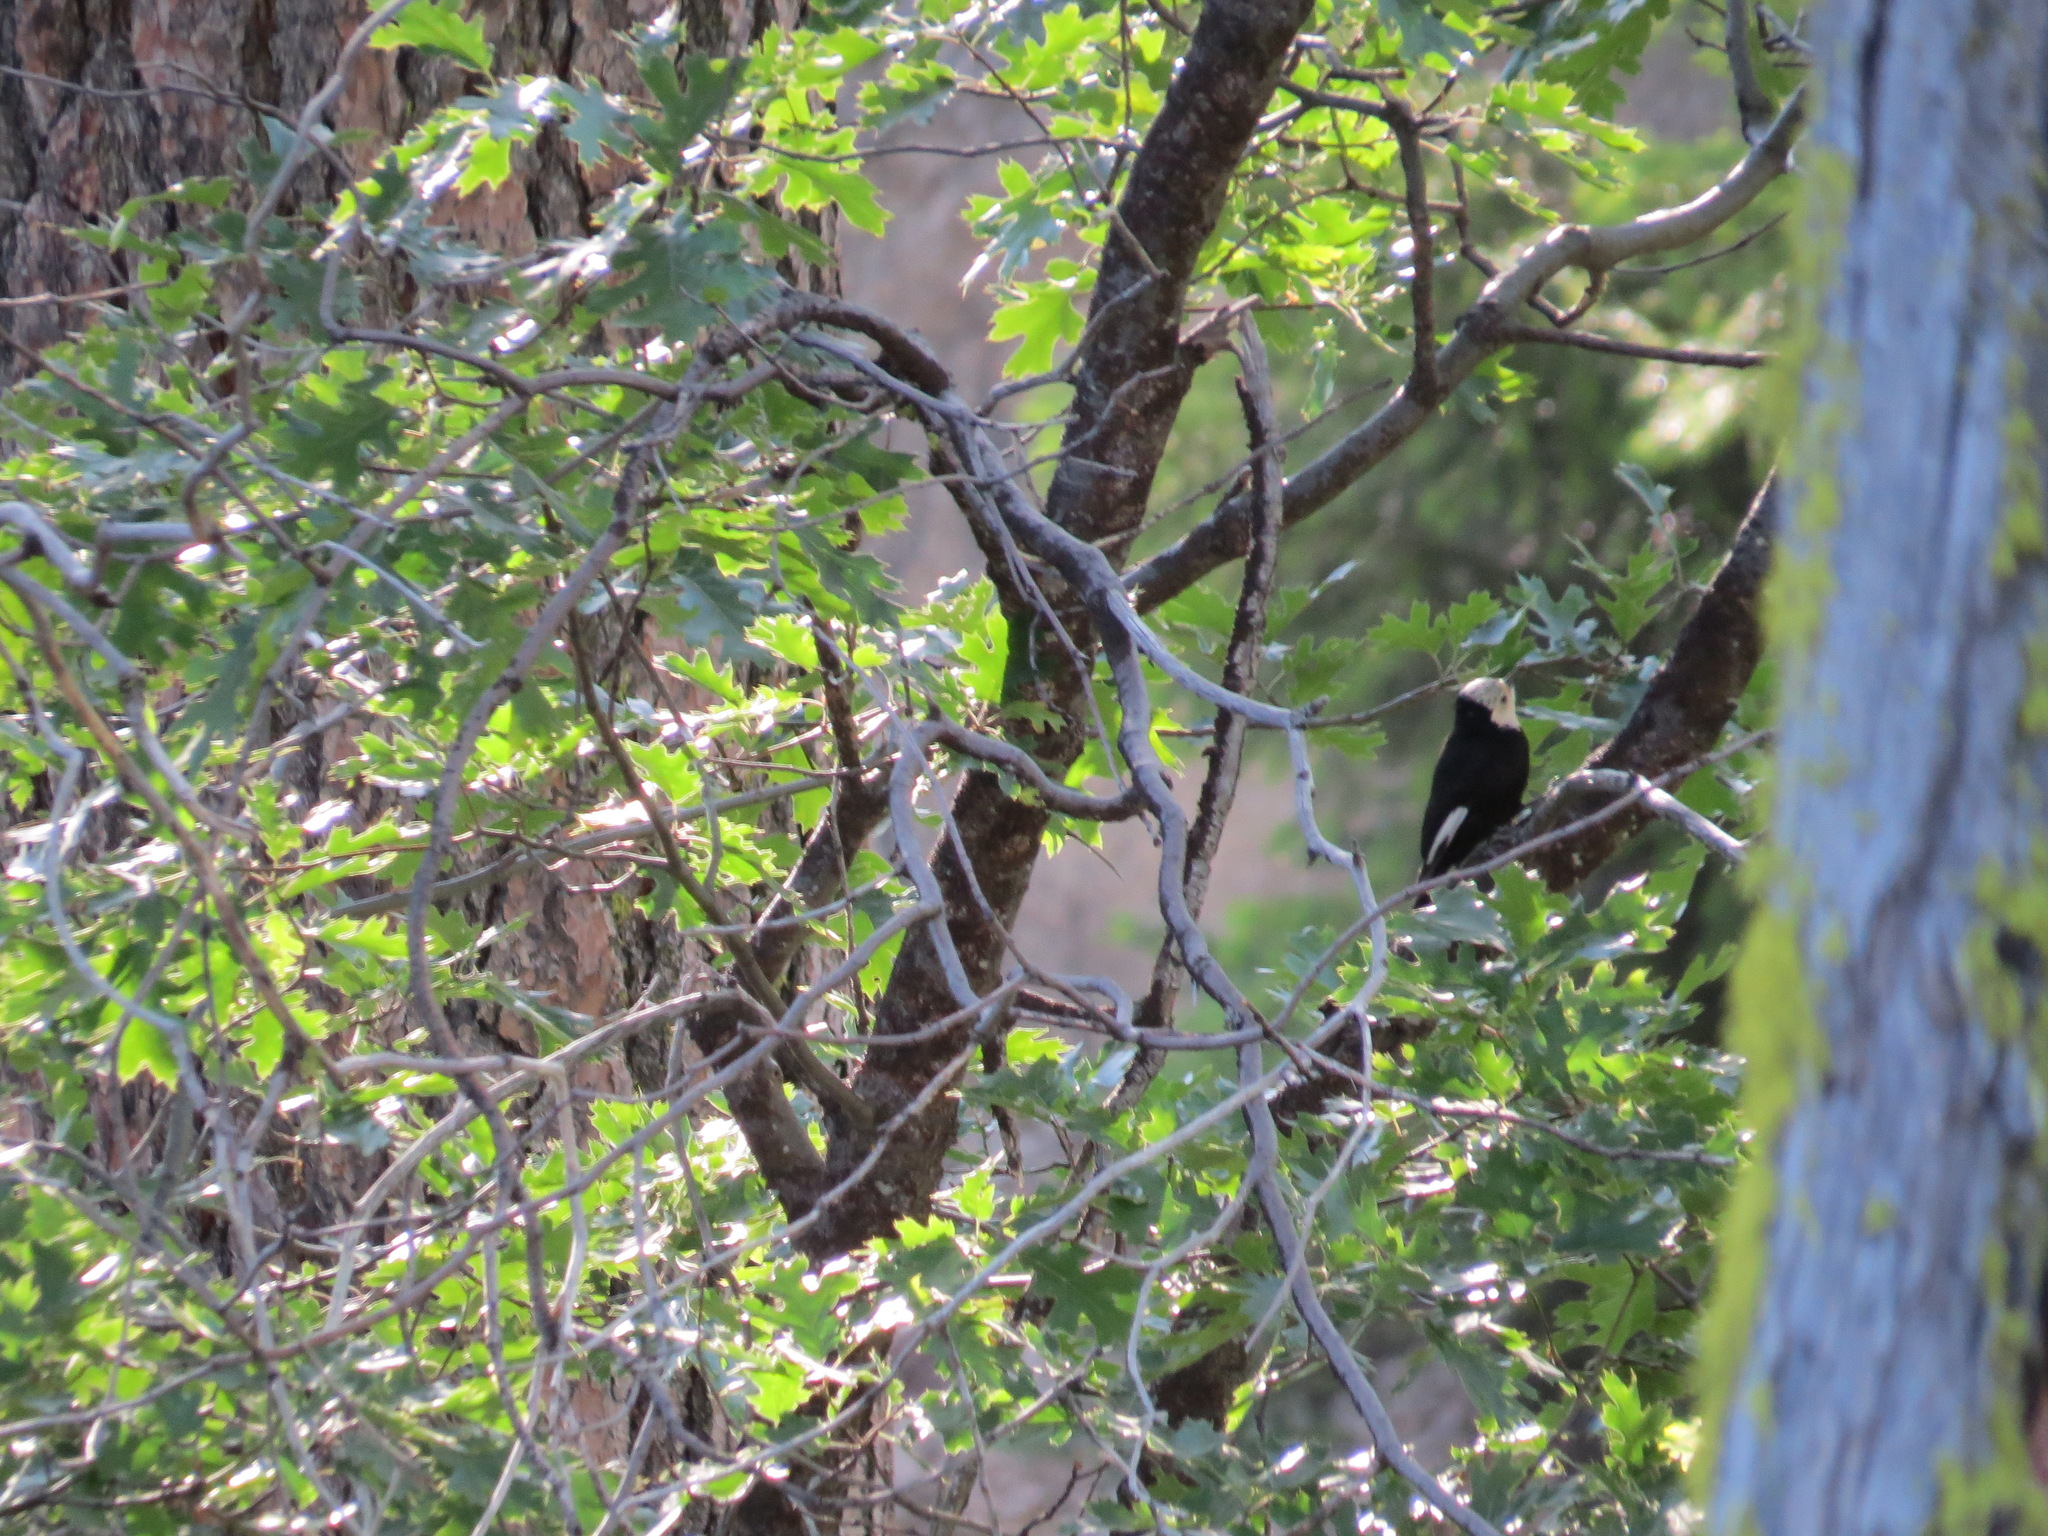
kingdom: Animalia
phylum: Chordata
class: Aves
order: Piciformes
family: Picidae
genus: Leuconotopicus
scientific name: Leuconotopicus albolarvatus
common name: White-headed woodpecker
